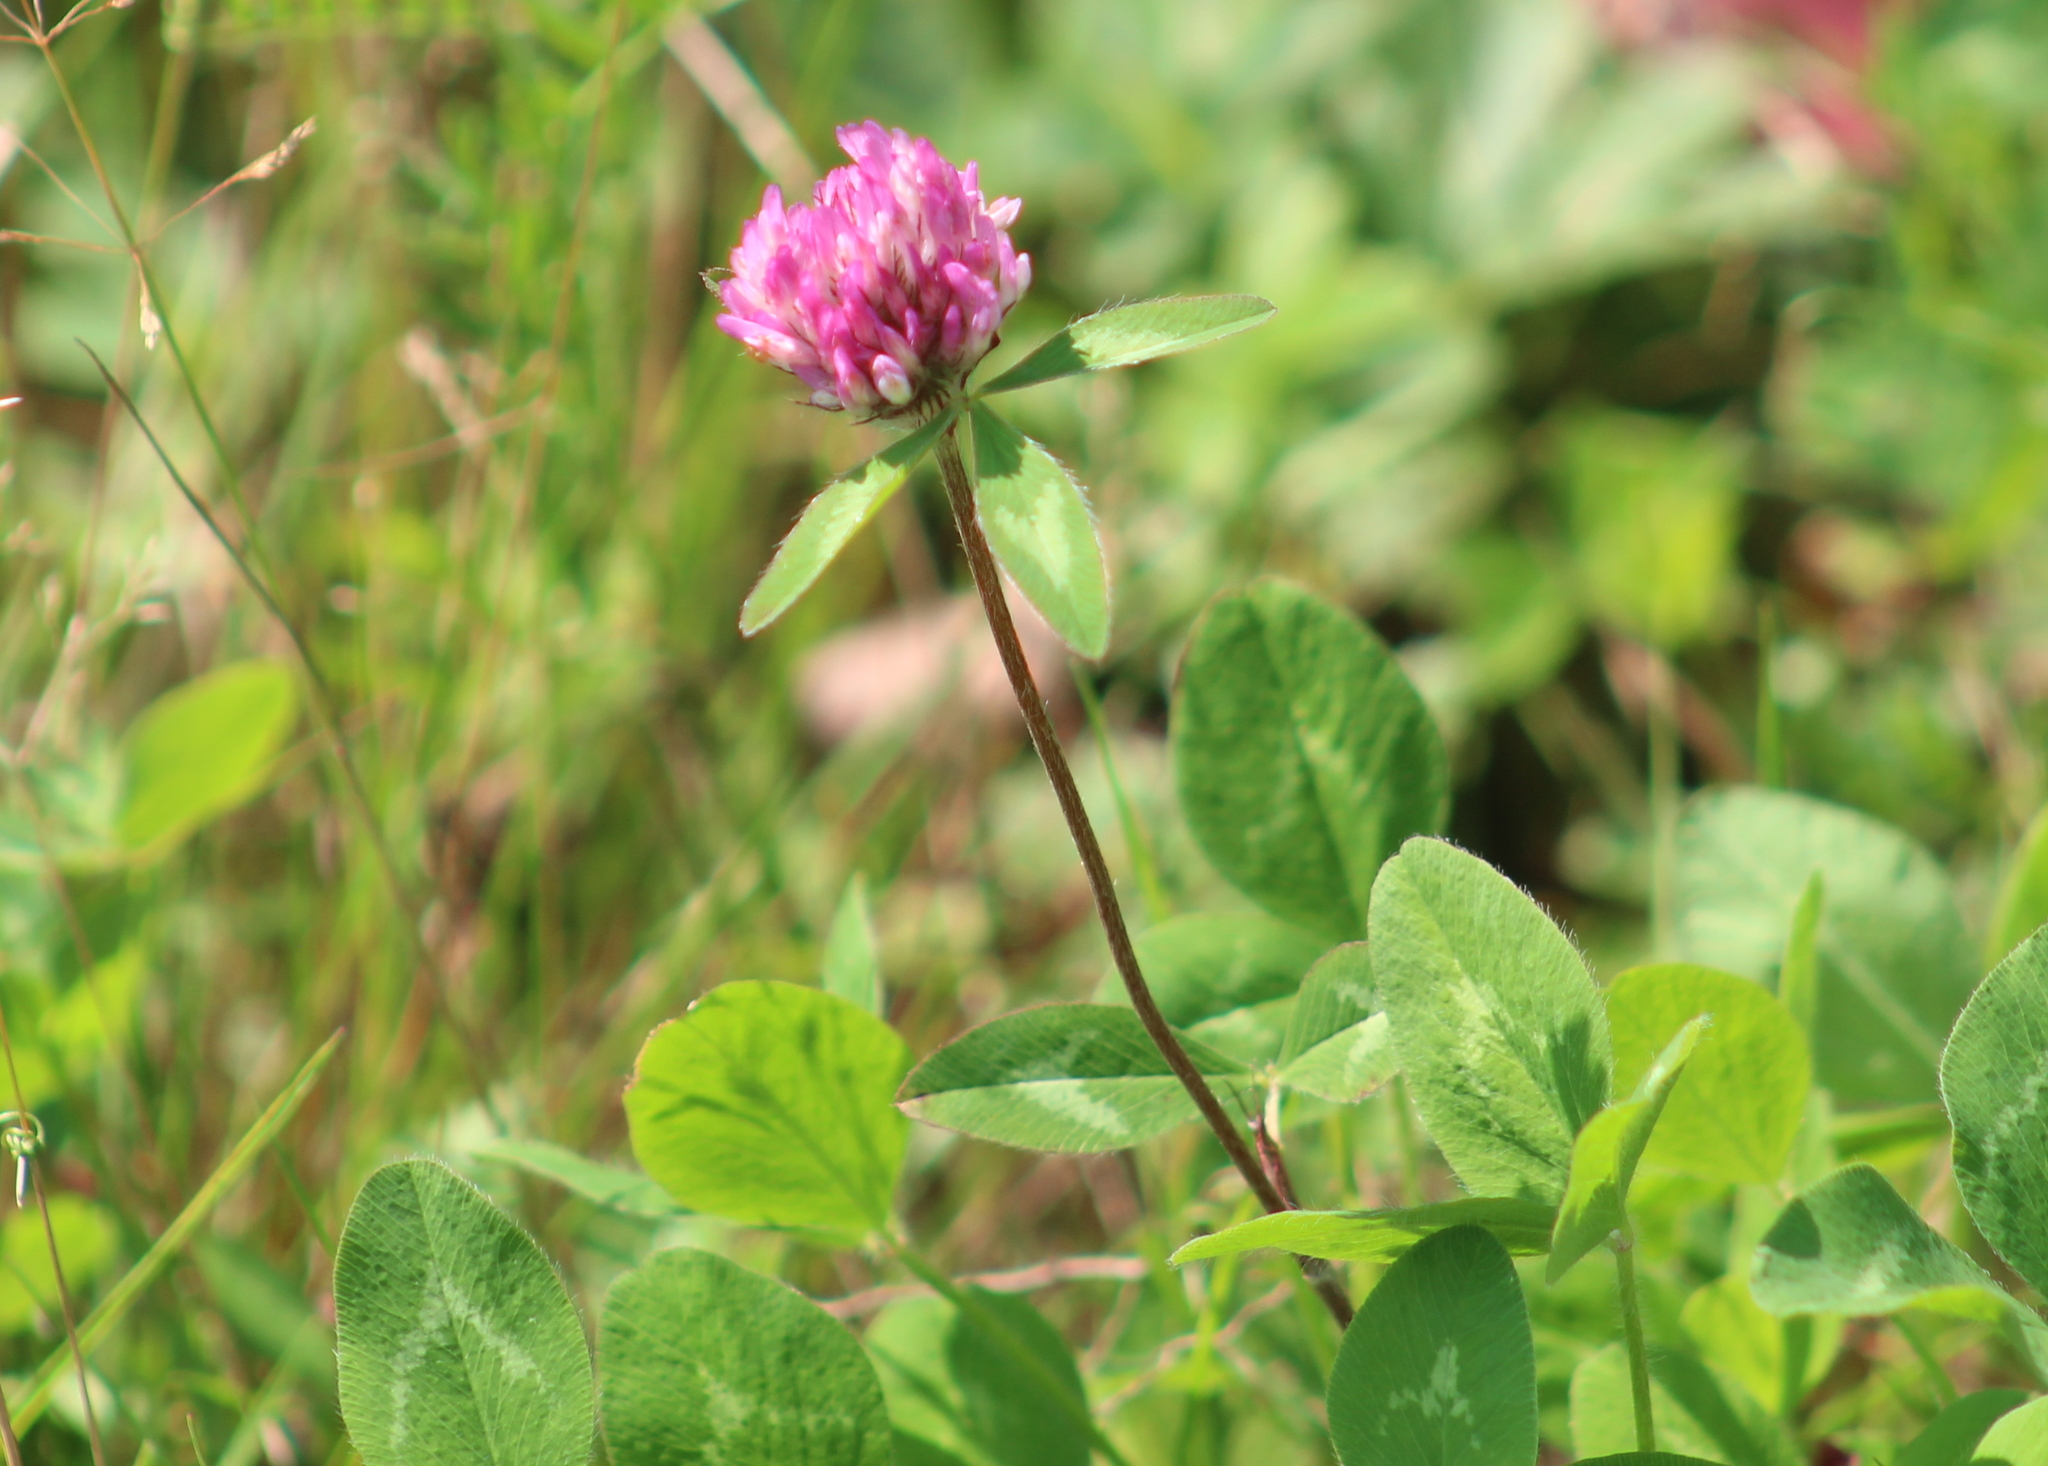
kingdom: Plantae
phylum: Tracheophyta
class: Magnoliopsida
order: Fabales
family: Fabaceae
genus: Trifolium
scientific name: Trifolium pratense
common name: Red clover
